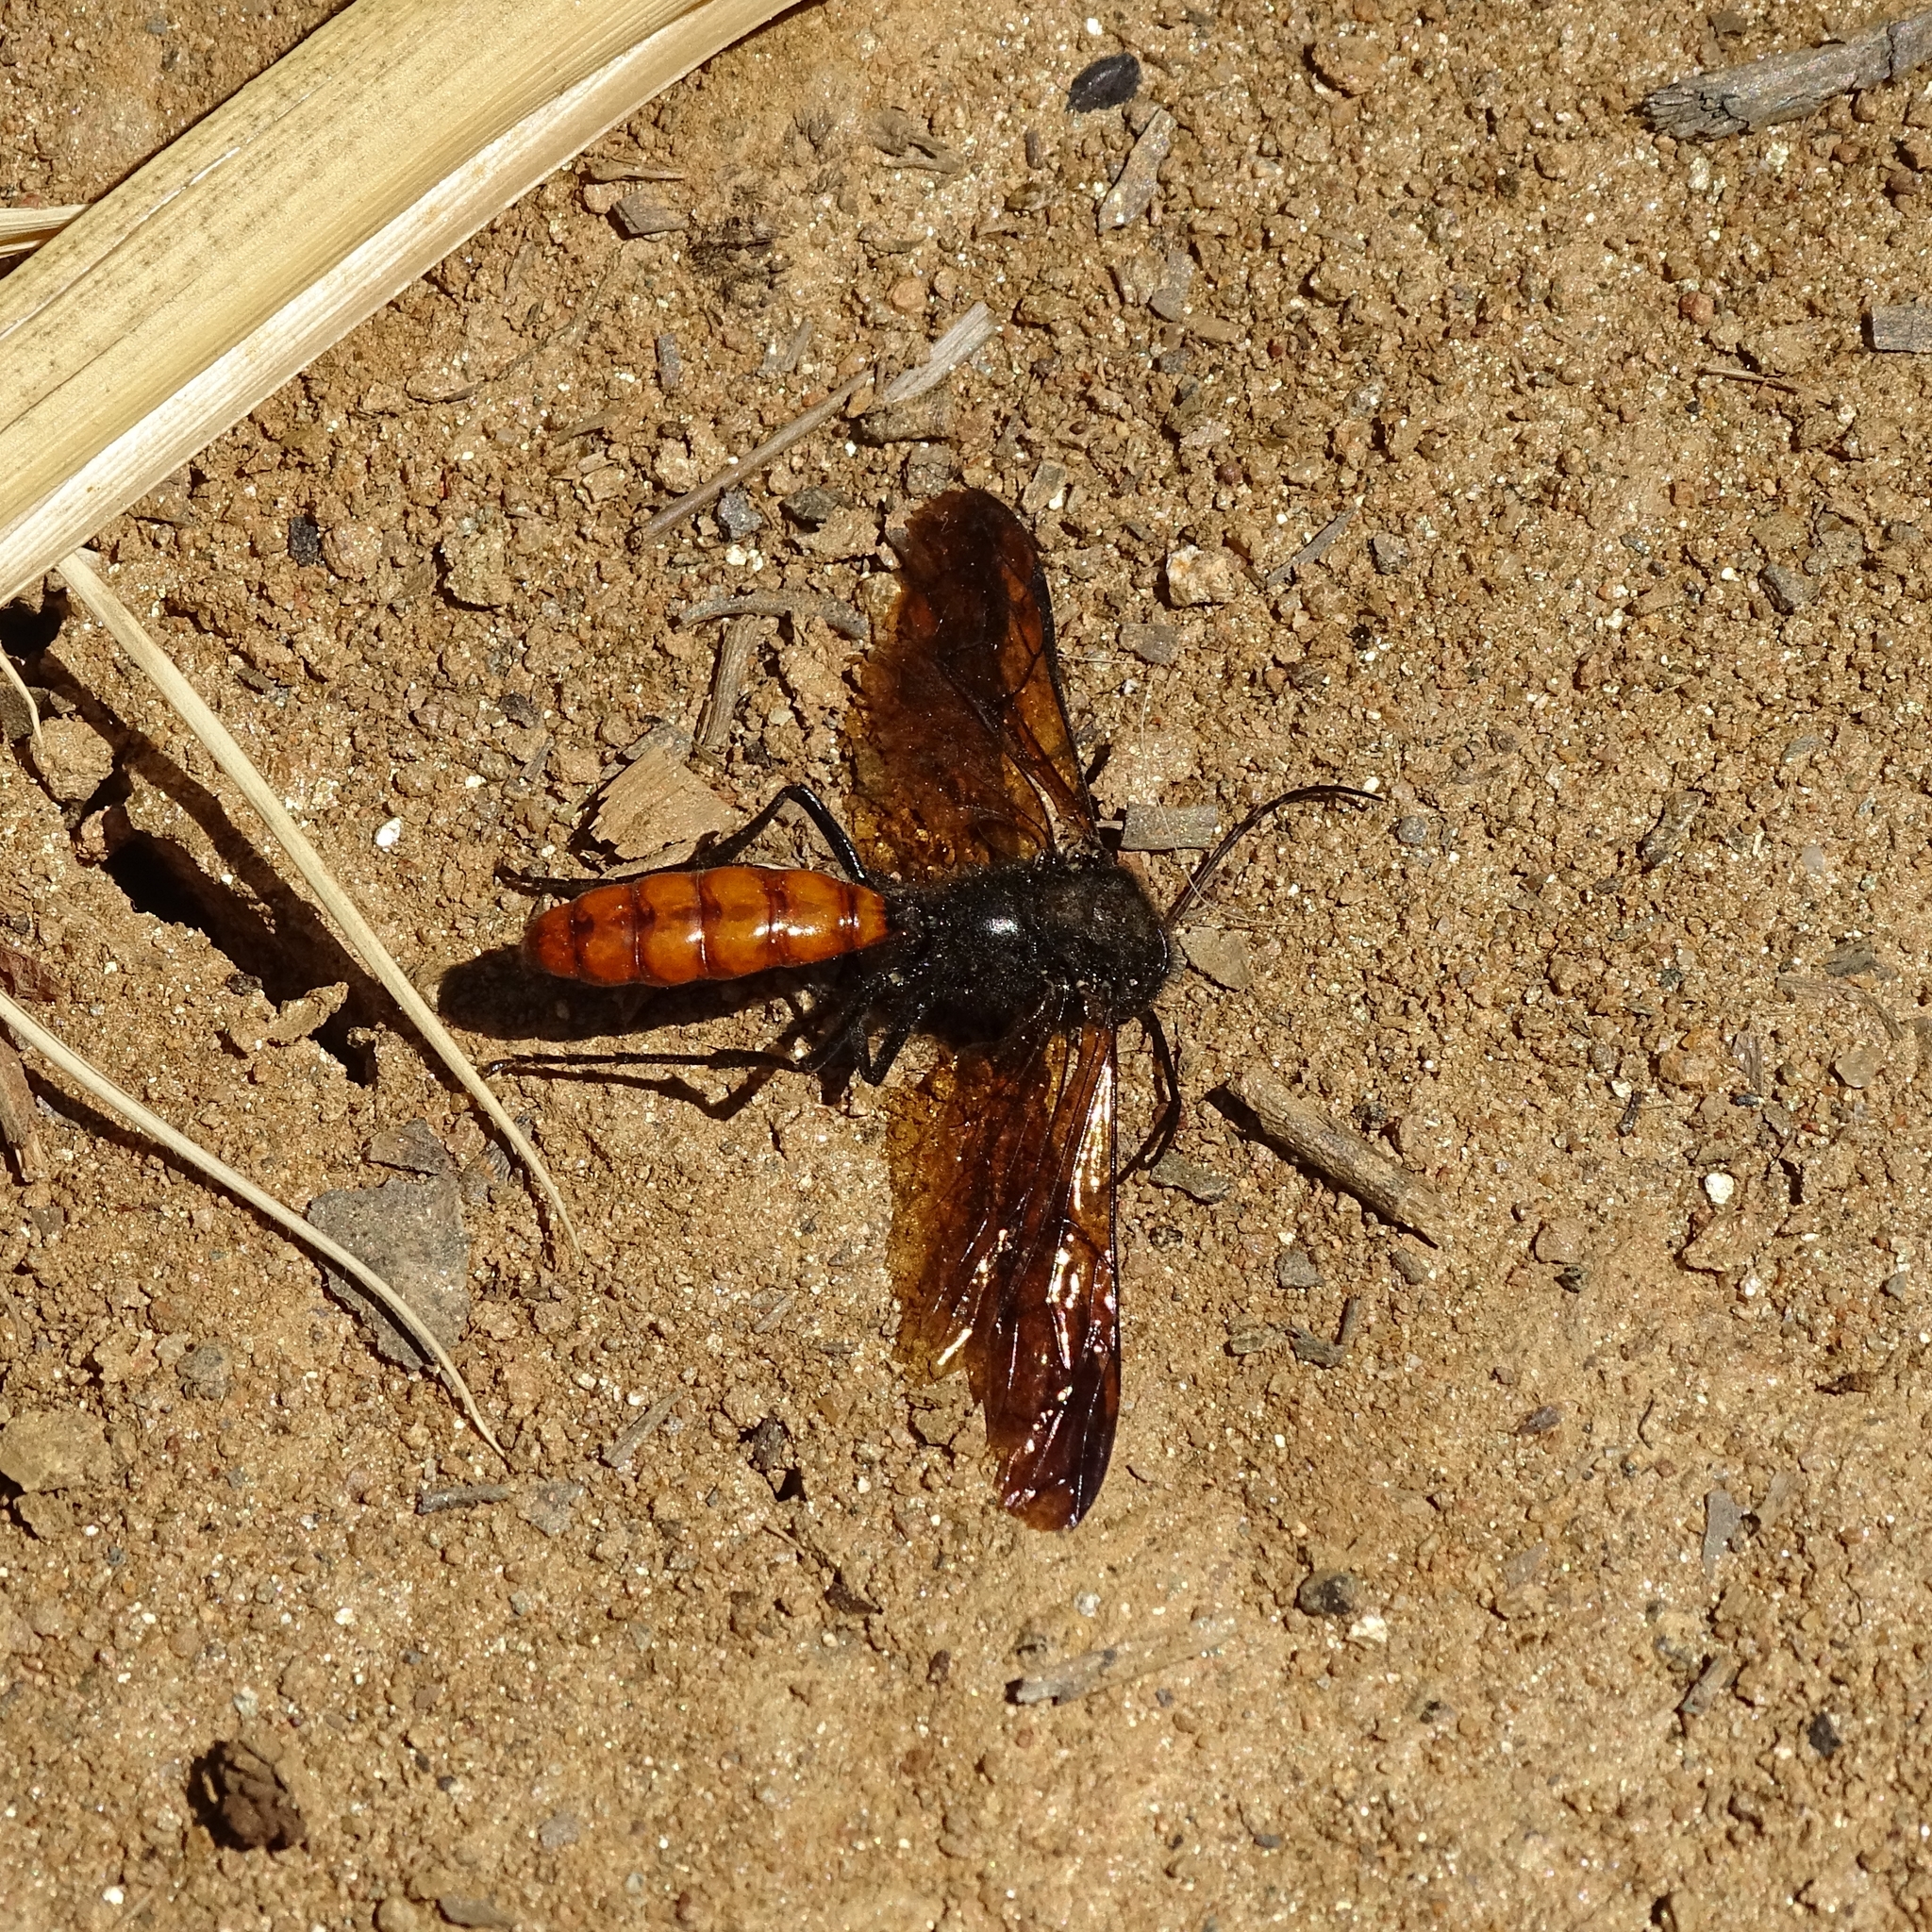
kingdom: Animalia
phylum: Arthropoda
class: Insecta
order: Hymenoptera
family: Tiphiidae
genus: Elaphroptera
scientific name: Elaphroptera
